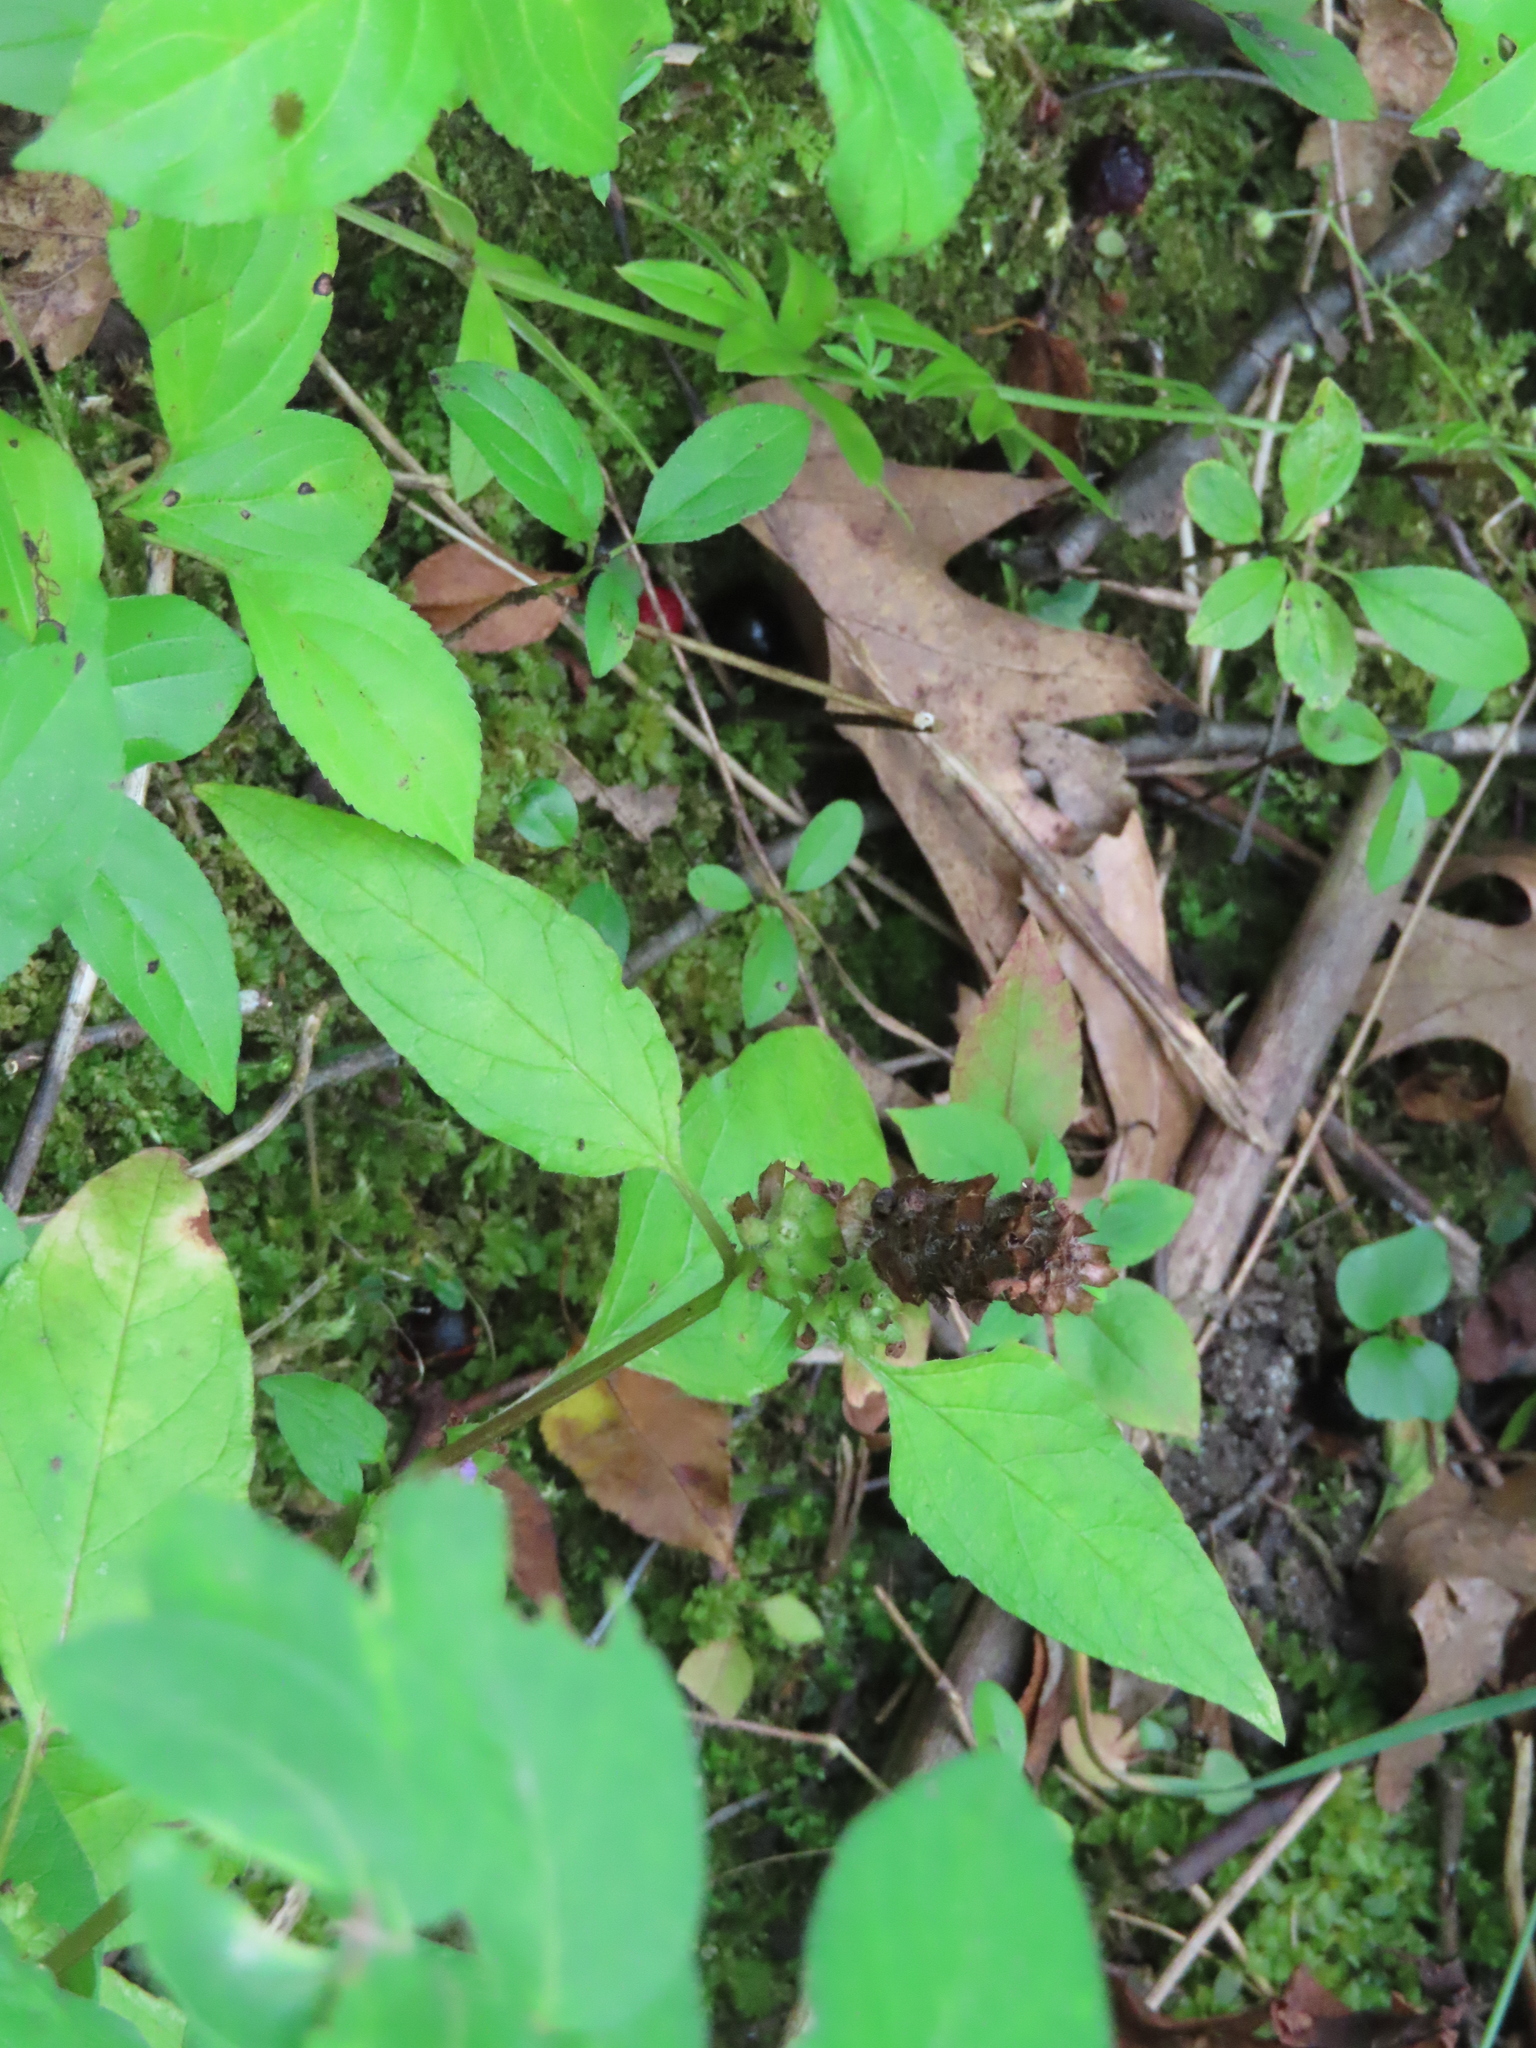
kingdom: Plantae
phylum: Tracheophyta
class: Magnoliopsida
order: Lamiales
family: Lamiaceae
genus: Prunella
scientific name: Prunella vulgaris
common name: Heal-all
